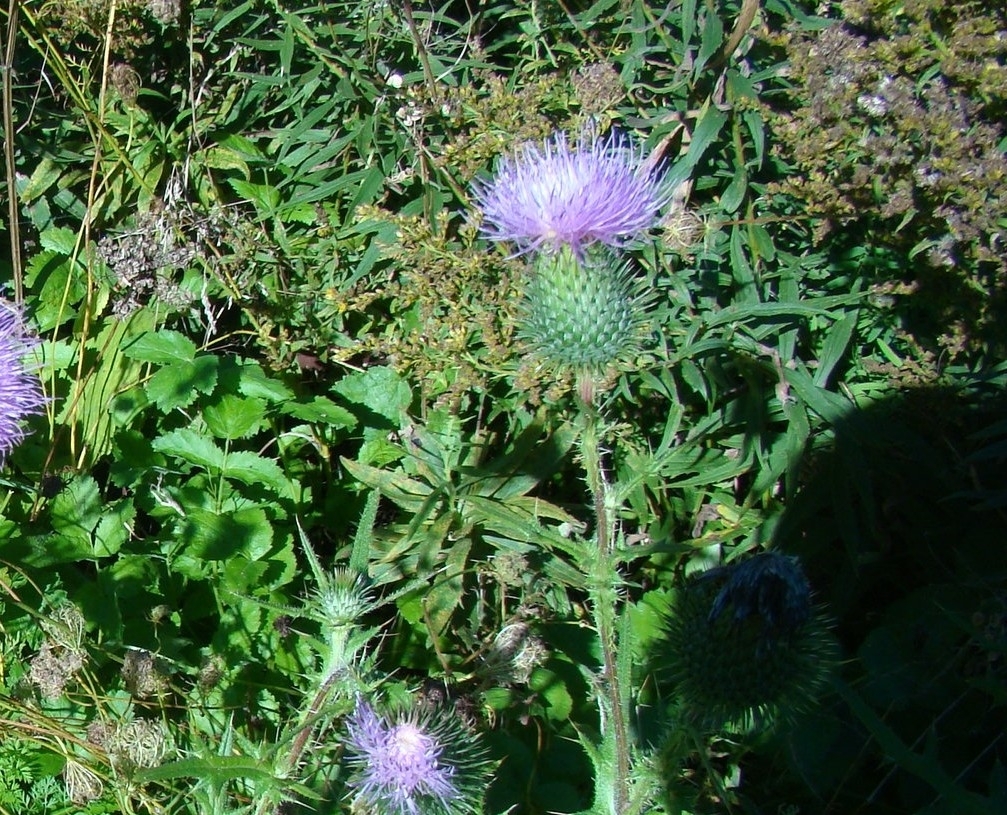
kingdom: Plantae
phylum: Tracheophyta
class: Magnoliopsida
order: Asterales
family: Asteraceae
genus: Cirsium
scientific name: Cirsium vulgare
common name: Bull thistle
